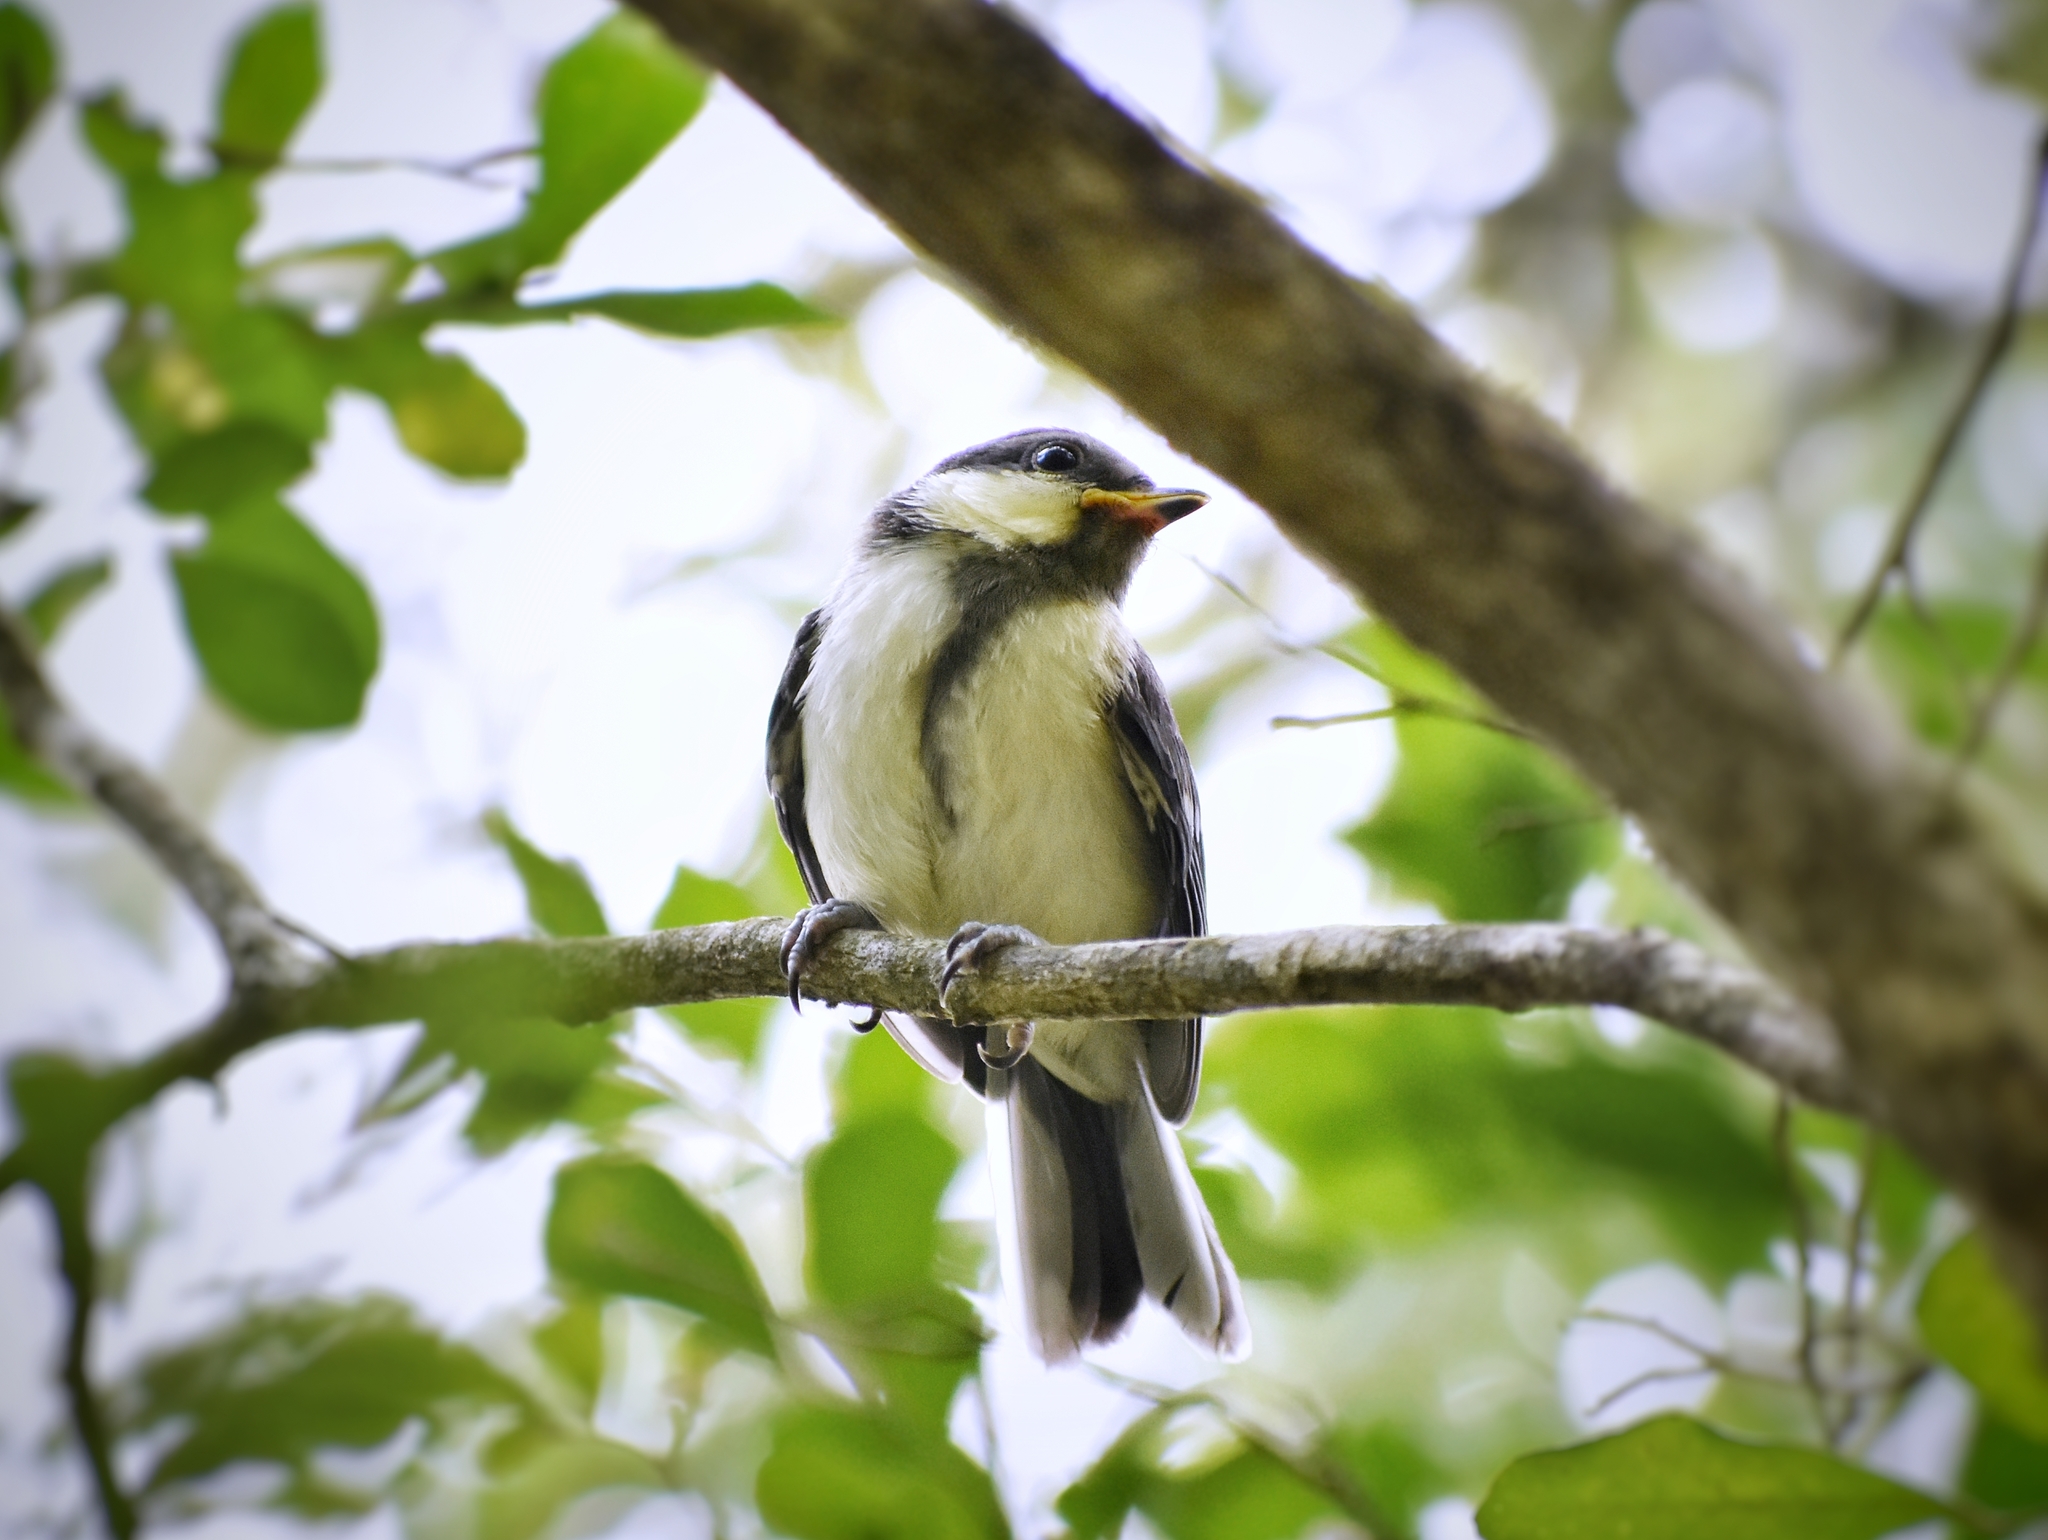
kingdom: Animalia
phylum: Chordata
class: Aves
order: Passeriformes
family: Paridae
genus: Parus
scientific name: Parus minor
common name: Japanese tit
